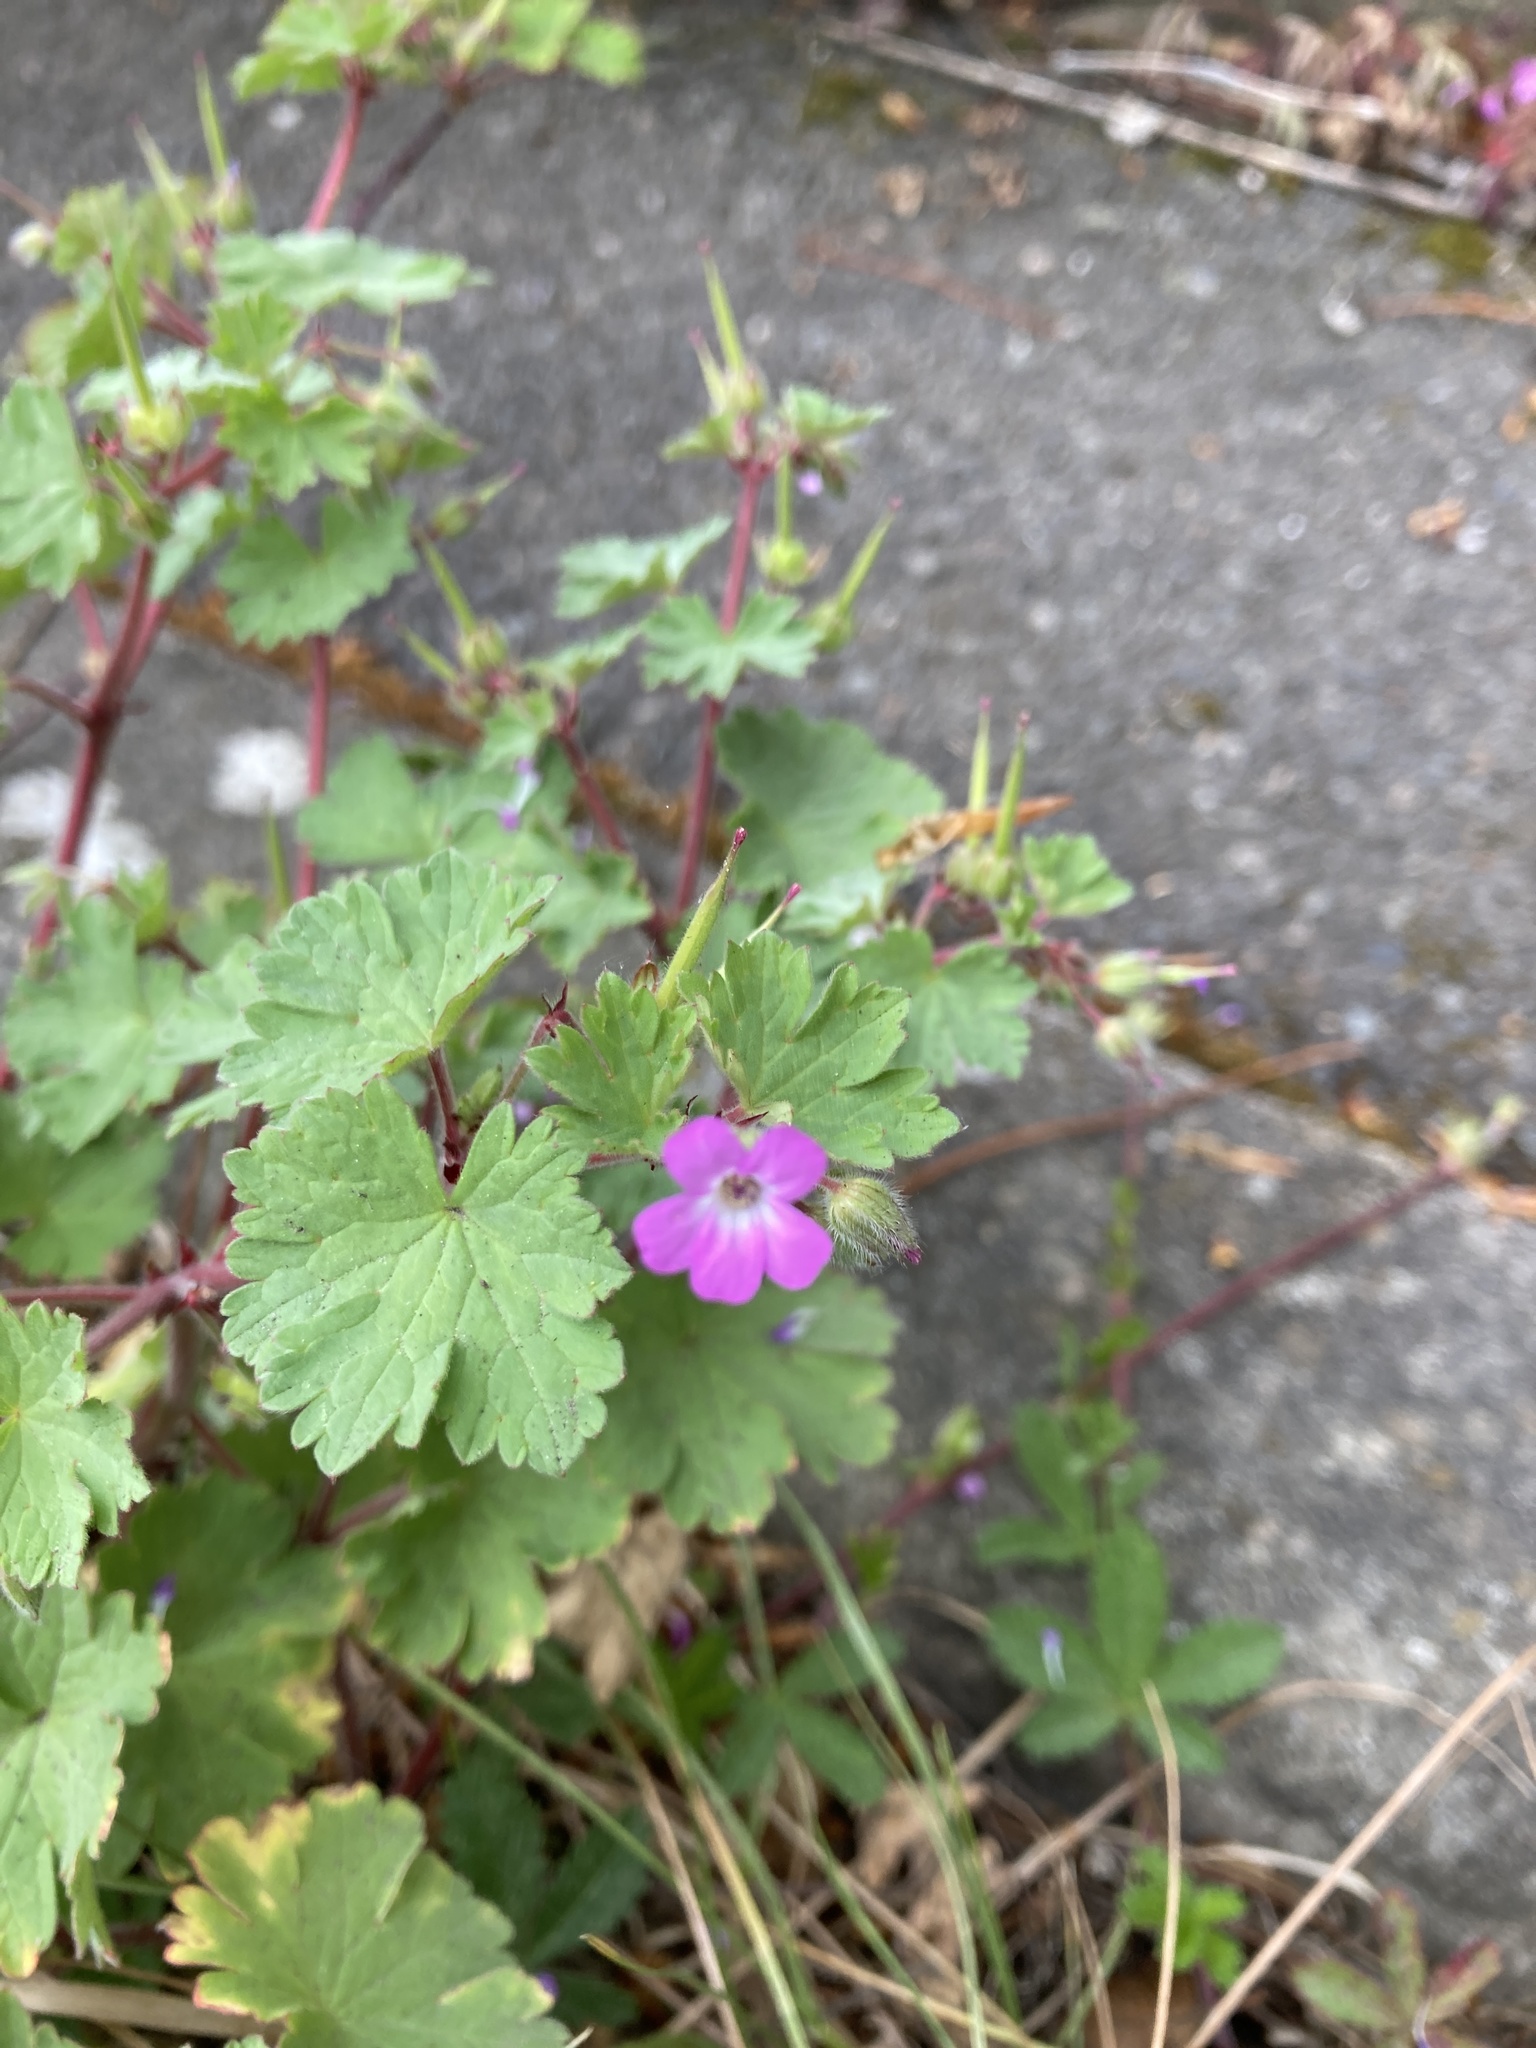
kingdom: Plantae
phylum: Tracheophyta
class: Magnoliopsida
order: Geraniales
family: Geraniaceae
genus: Geranium
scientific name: Geranium rotundifolium
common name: Round-leaved crane's-bill
